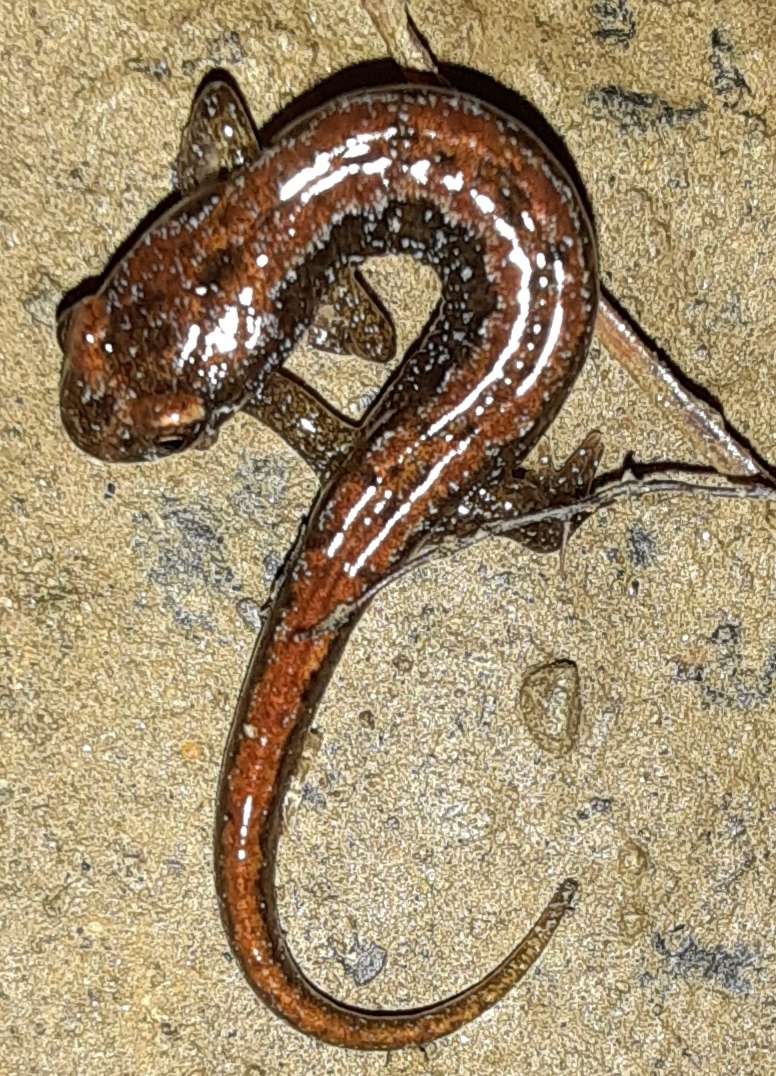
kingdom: Animalia
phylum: Chordata
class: Amphibia
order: Caudata
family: Plethodontidae
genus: Desmognathus
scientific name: Desmognathus fuscus
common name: Northern dusky salamander
